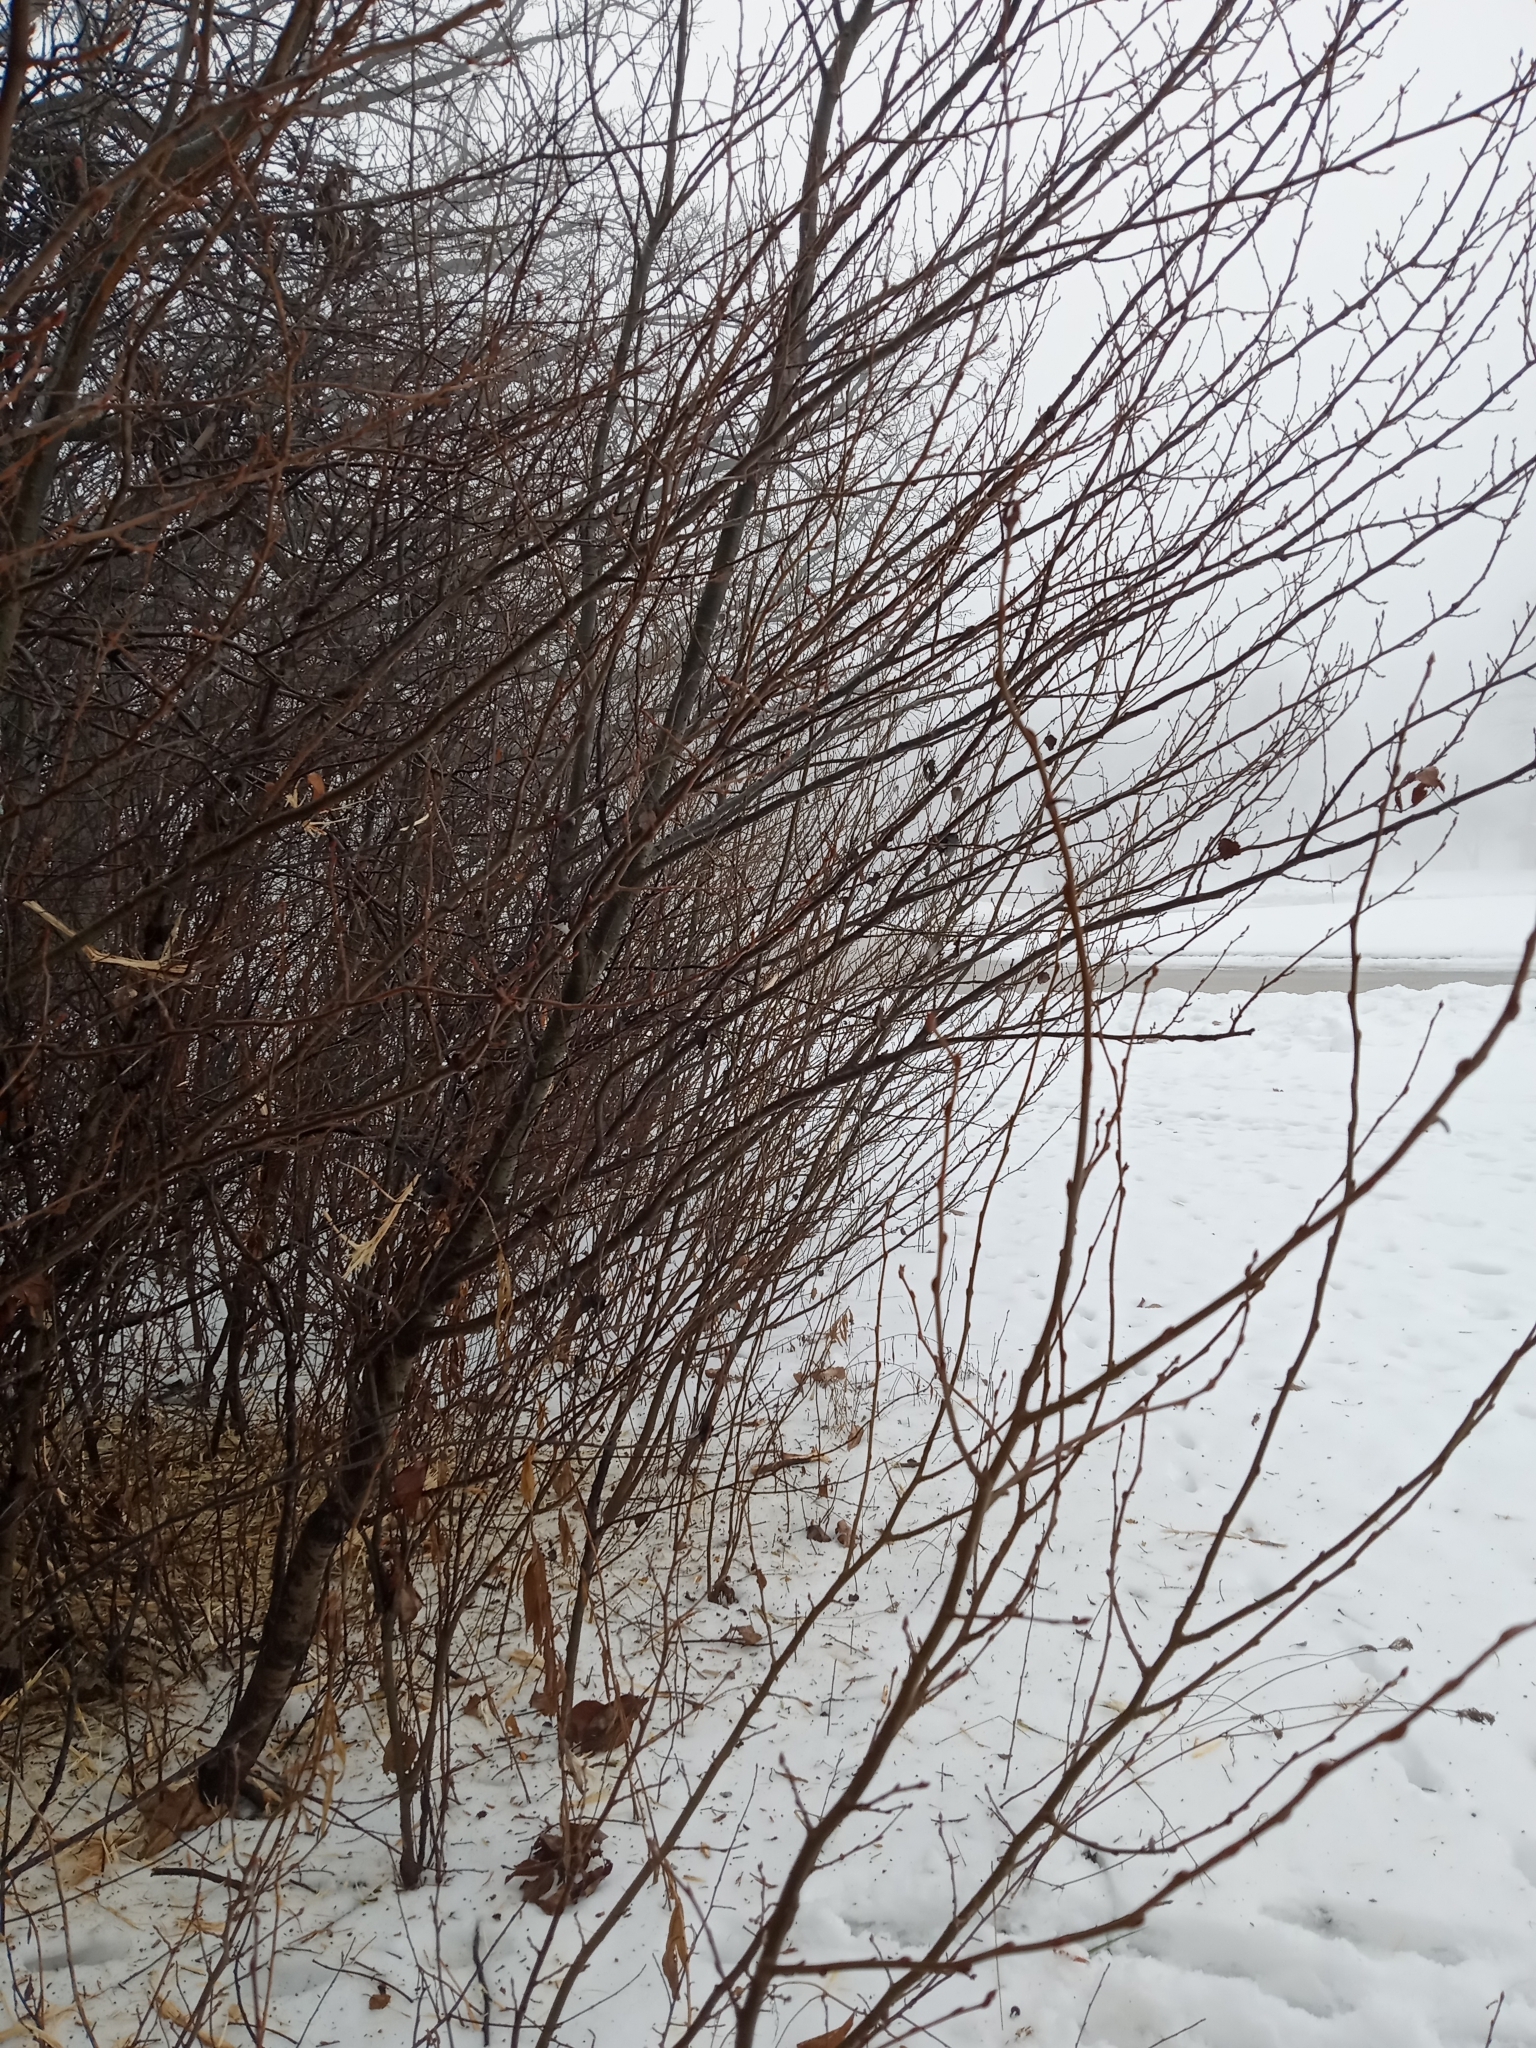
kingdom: Plantae
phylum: Tracheophyta
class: Magnoliopsida
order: Malpighiales
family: Salicaceae
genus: Populus
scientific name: Populus grandidentata
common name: Bigtooth aspen
